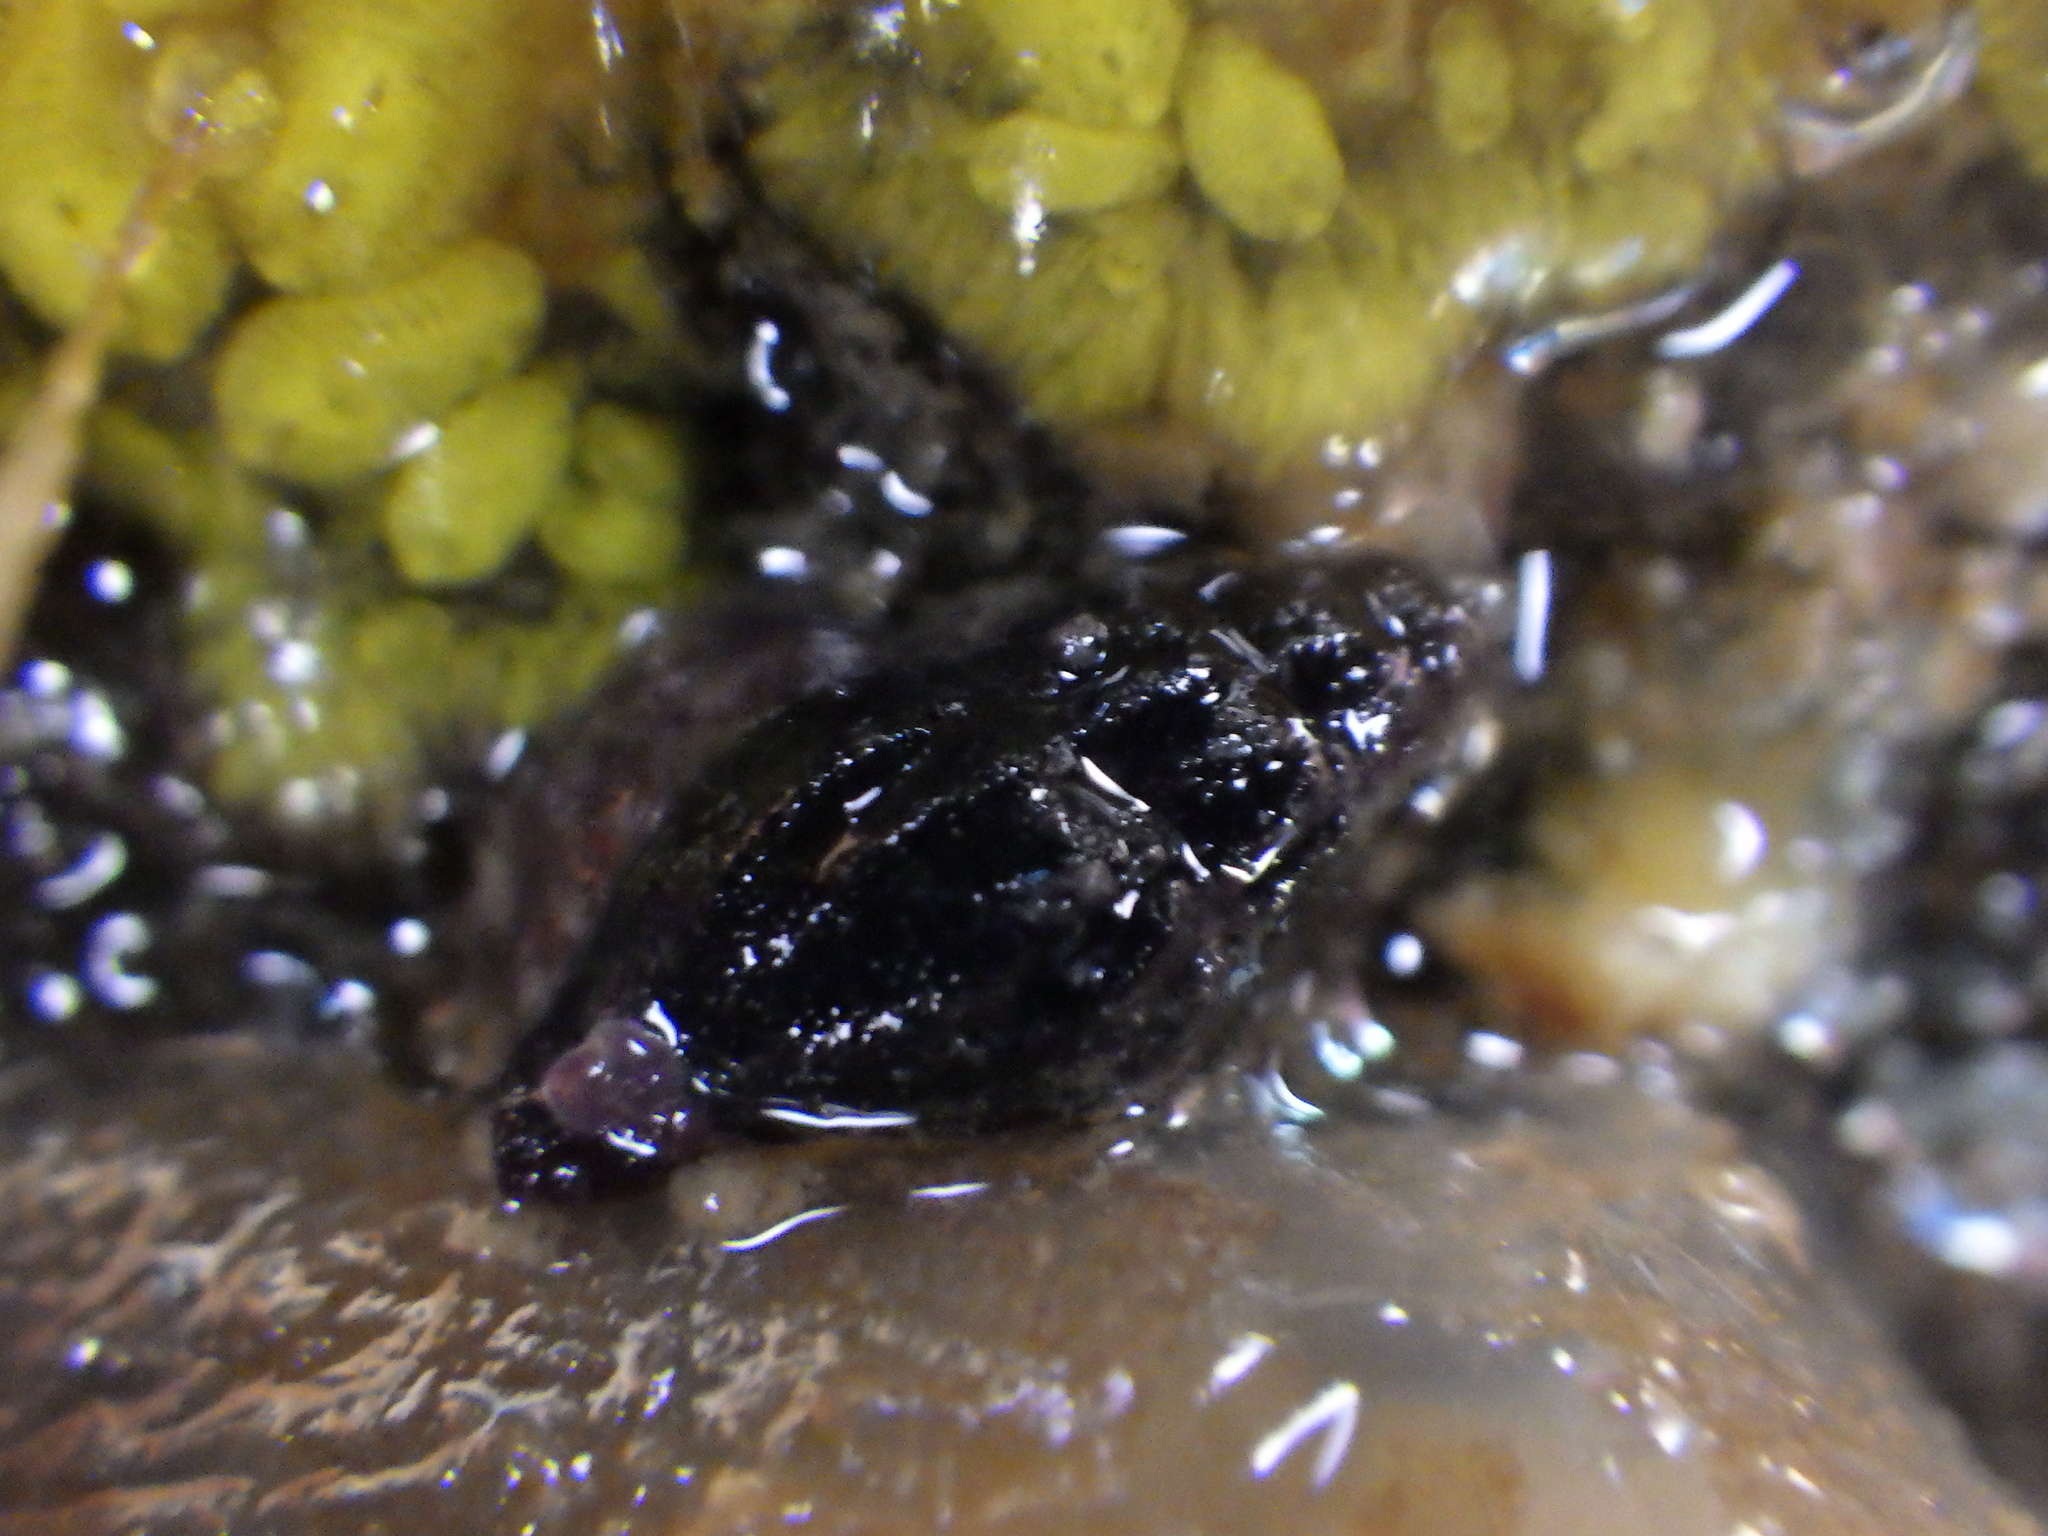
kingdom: Animalia
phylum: Mollusca
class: Gastropoda
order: Neogastropoda
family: Costellariidae
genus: Austromitra
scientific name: Austromitra rubiginosa
